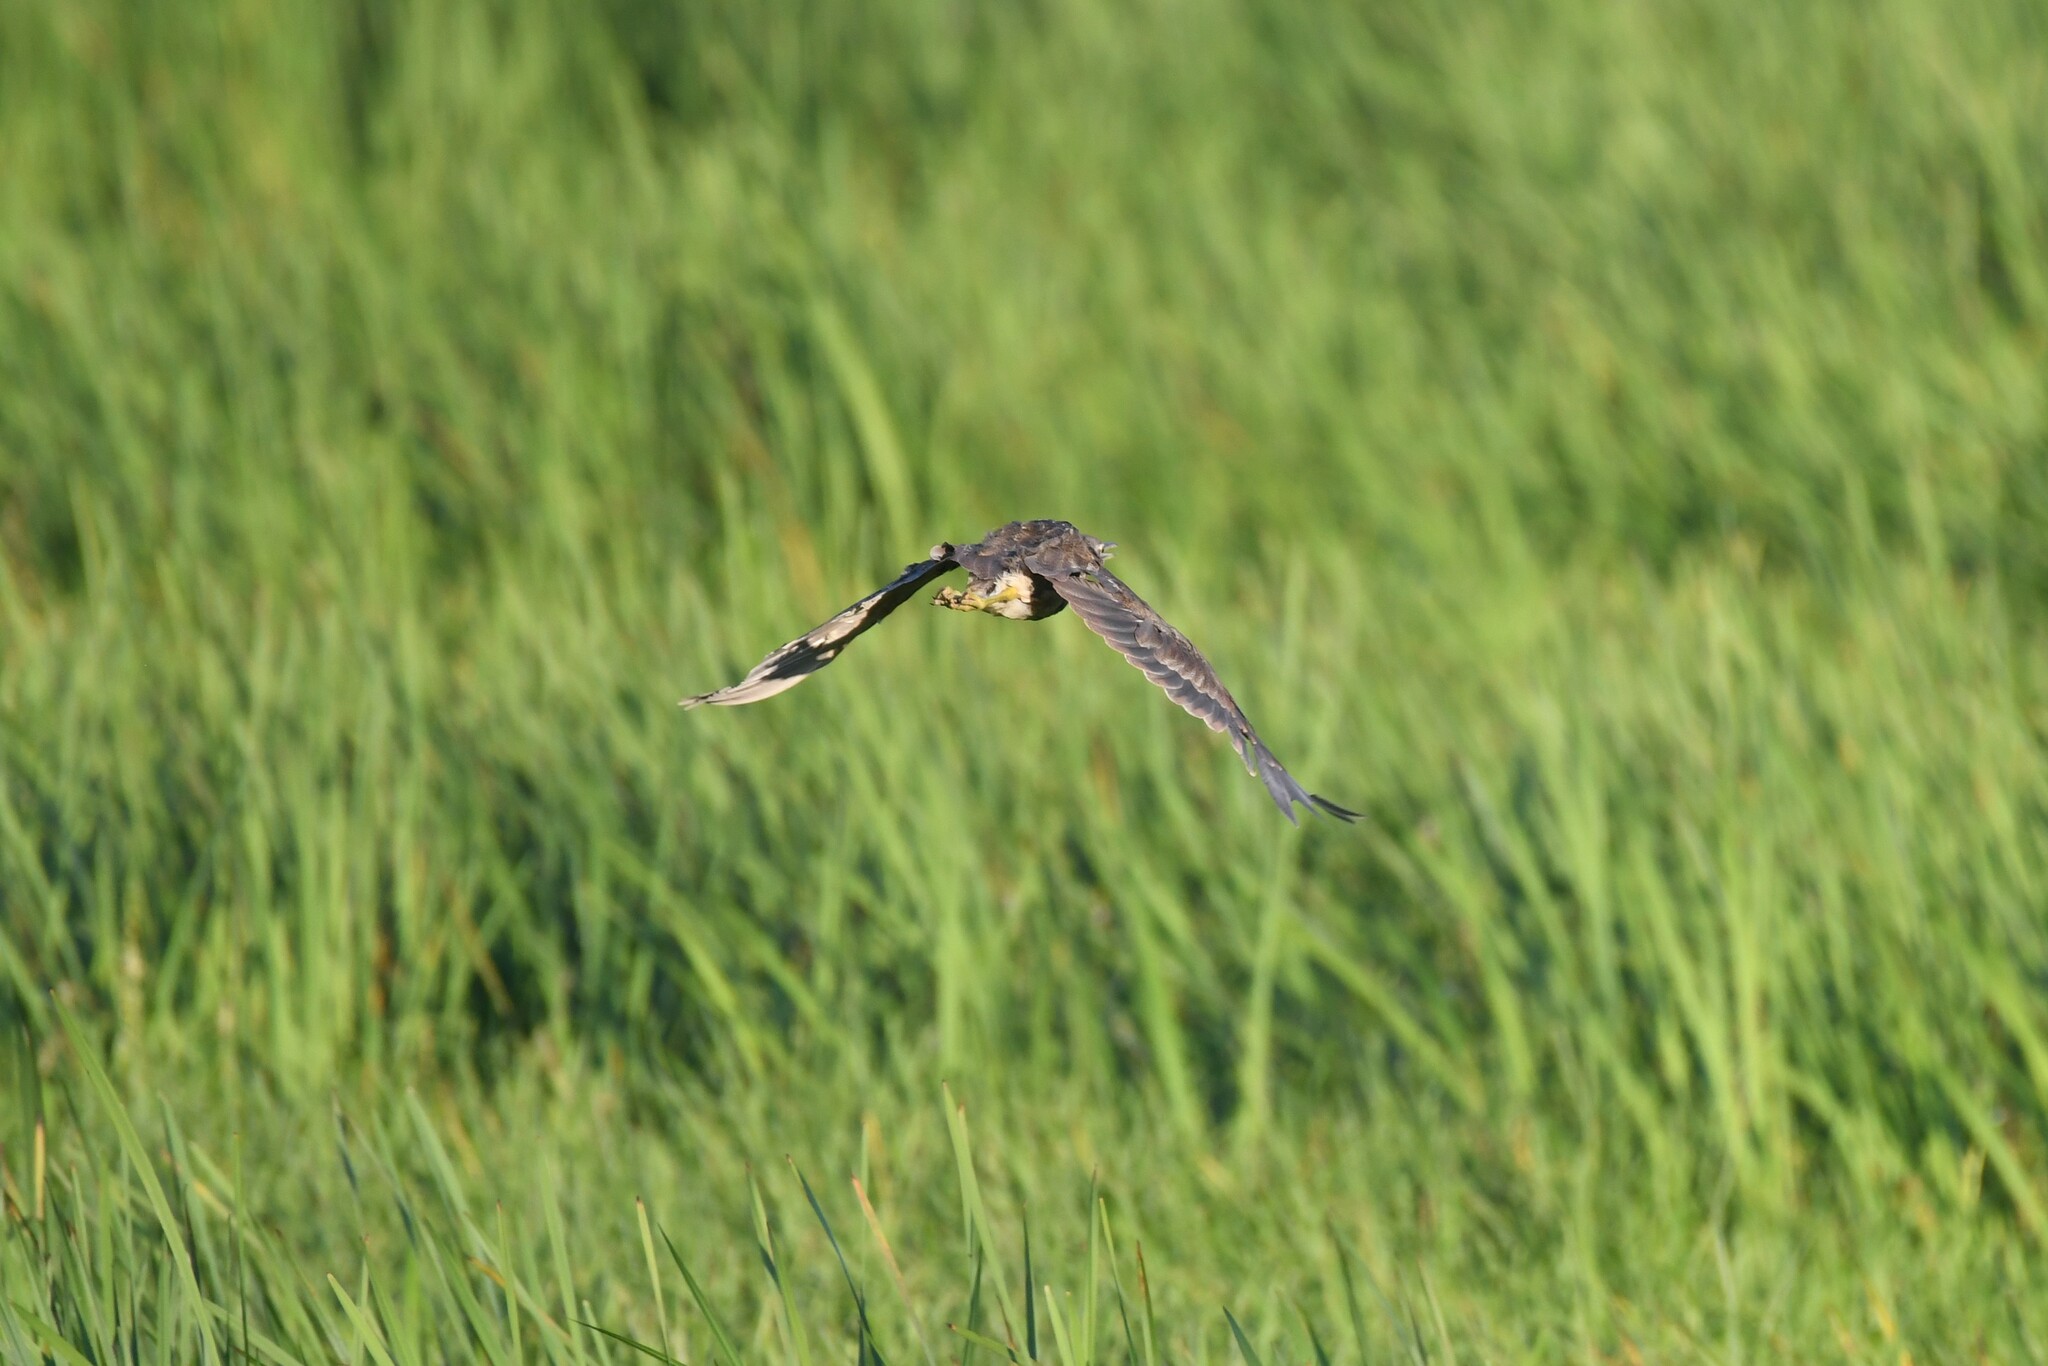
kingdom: Animalia
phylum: Chordata
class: Aves
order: Pelecaniformes
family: Ardeidae
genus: Botaurus
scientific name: Botaurus lentiginosus
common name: American bittern
